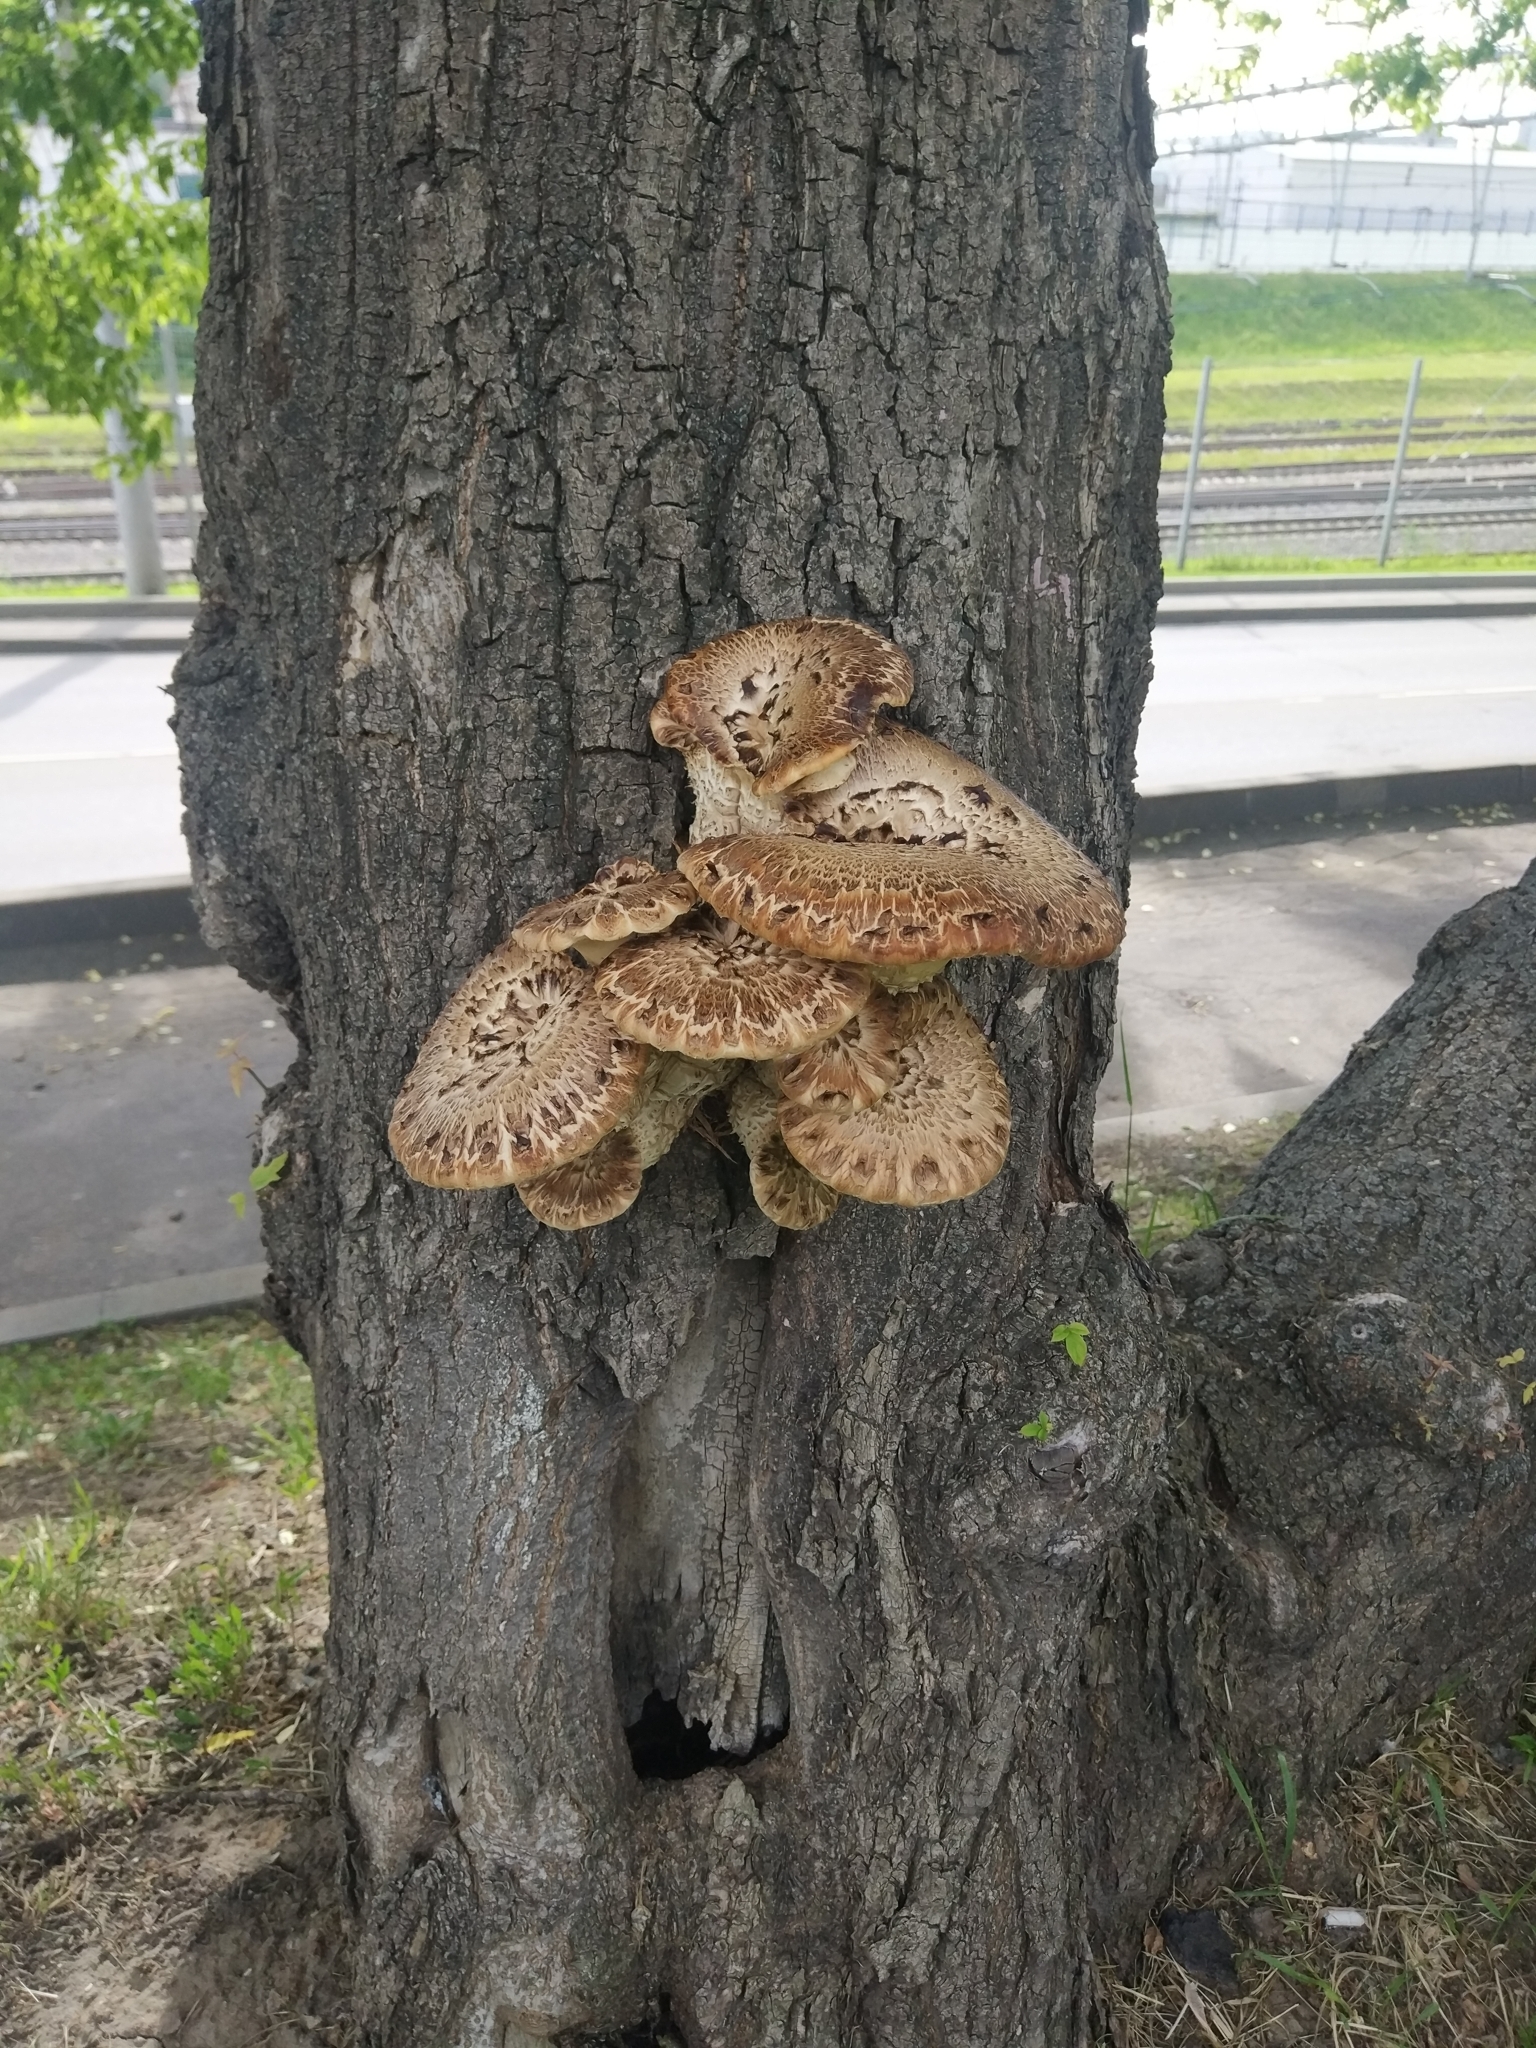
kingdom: Fungi
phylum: Basidiomycota
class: Agaricomycetes
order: Polyporales
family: Polyporaceae
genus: Cerioporus
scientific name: Cerioporus squamosus
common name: Dryad's saddle
